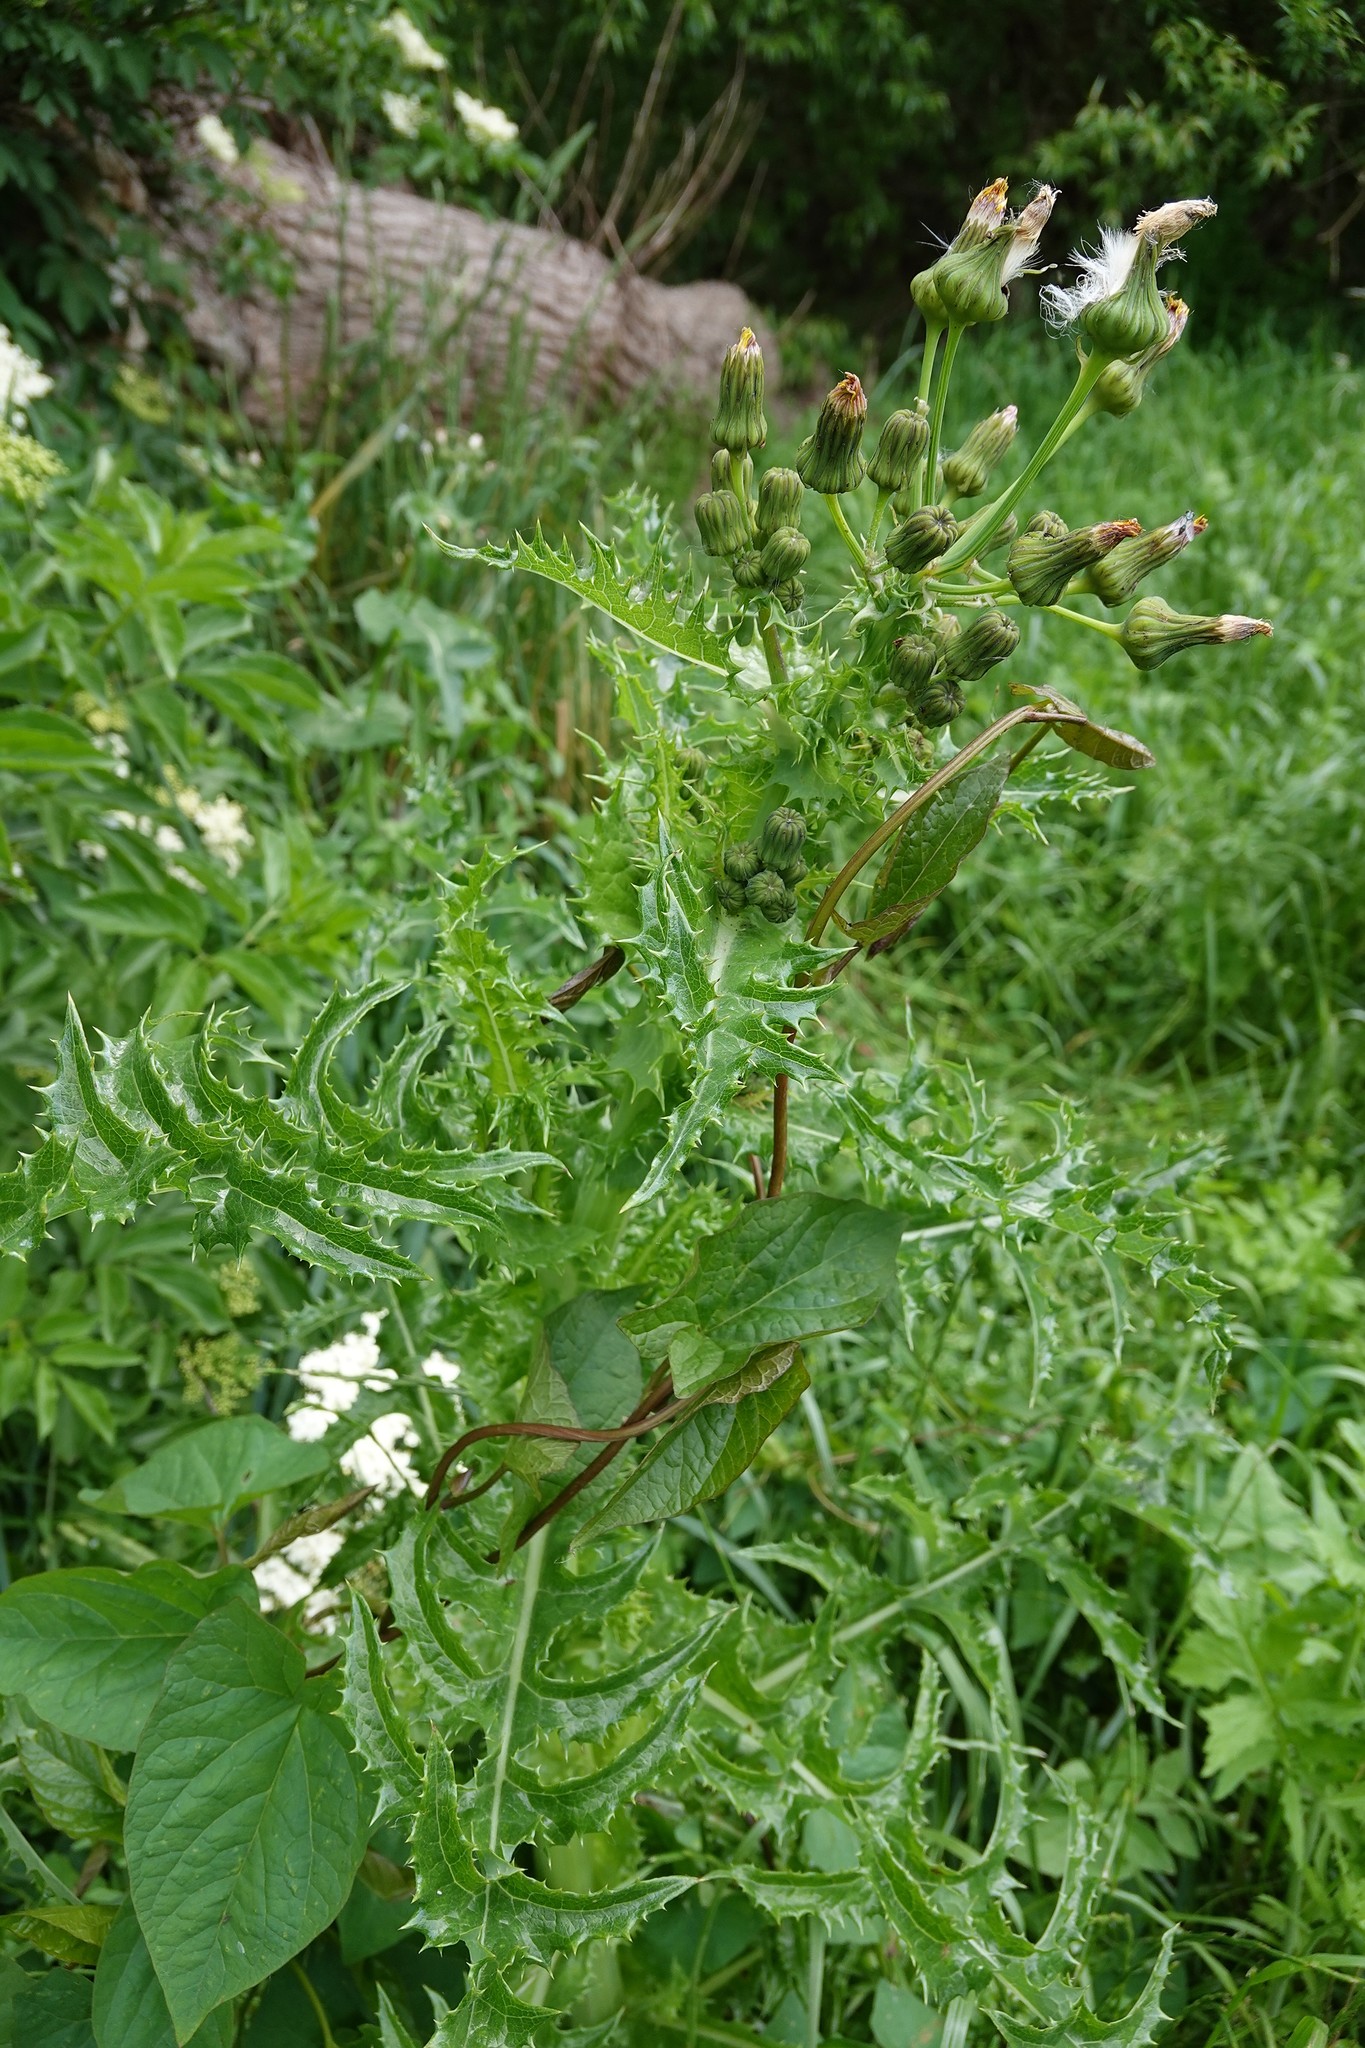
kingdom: Plantae
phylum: Tracheophyta
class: Magnoliopsida
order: Asterales
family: Asteraceae
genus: Sonchus
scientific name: Sonchus asper
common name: Prickly sow-thistle
